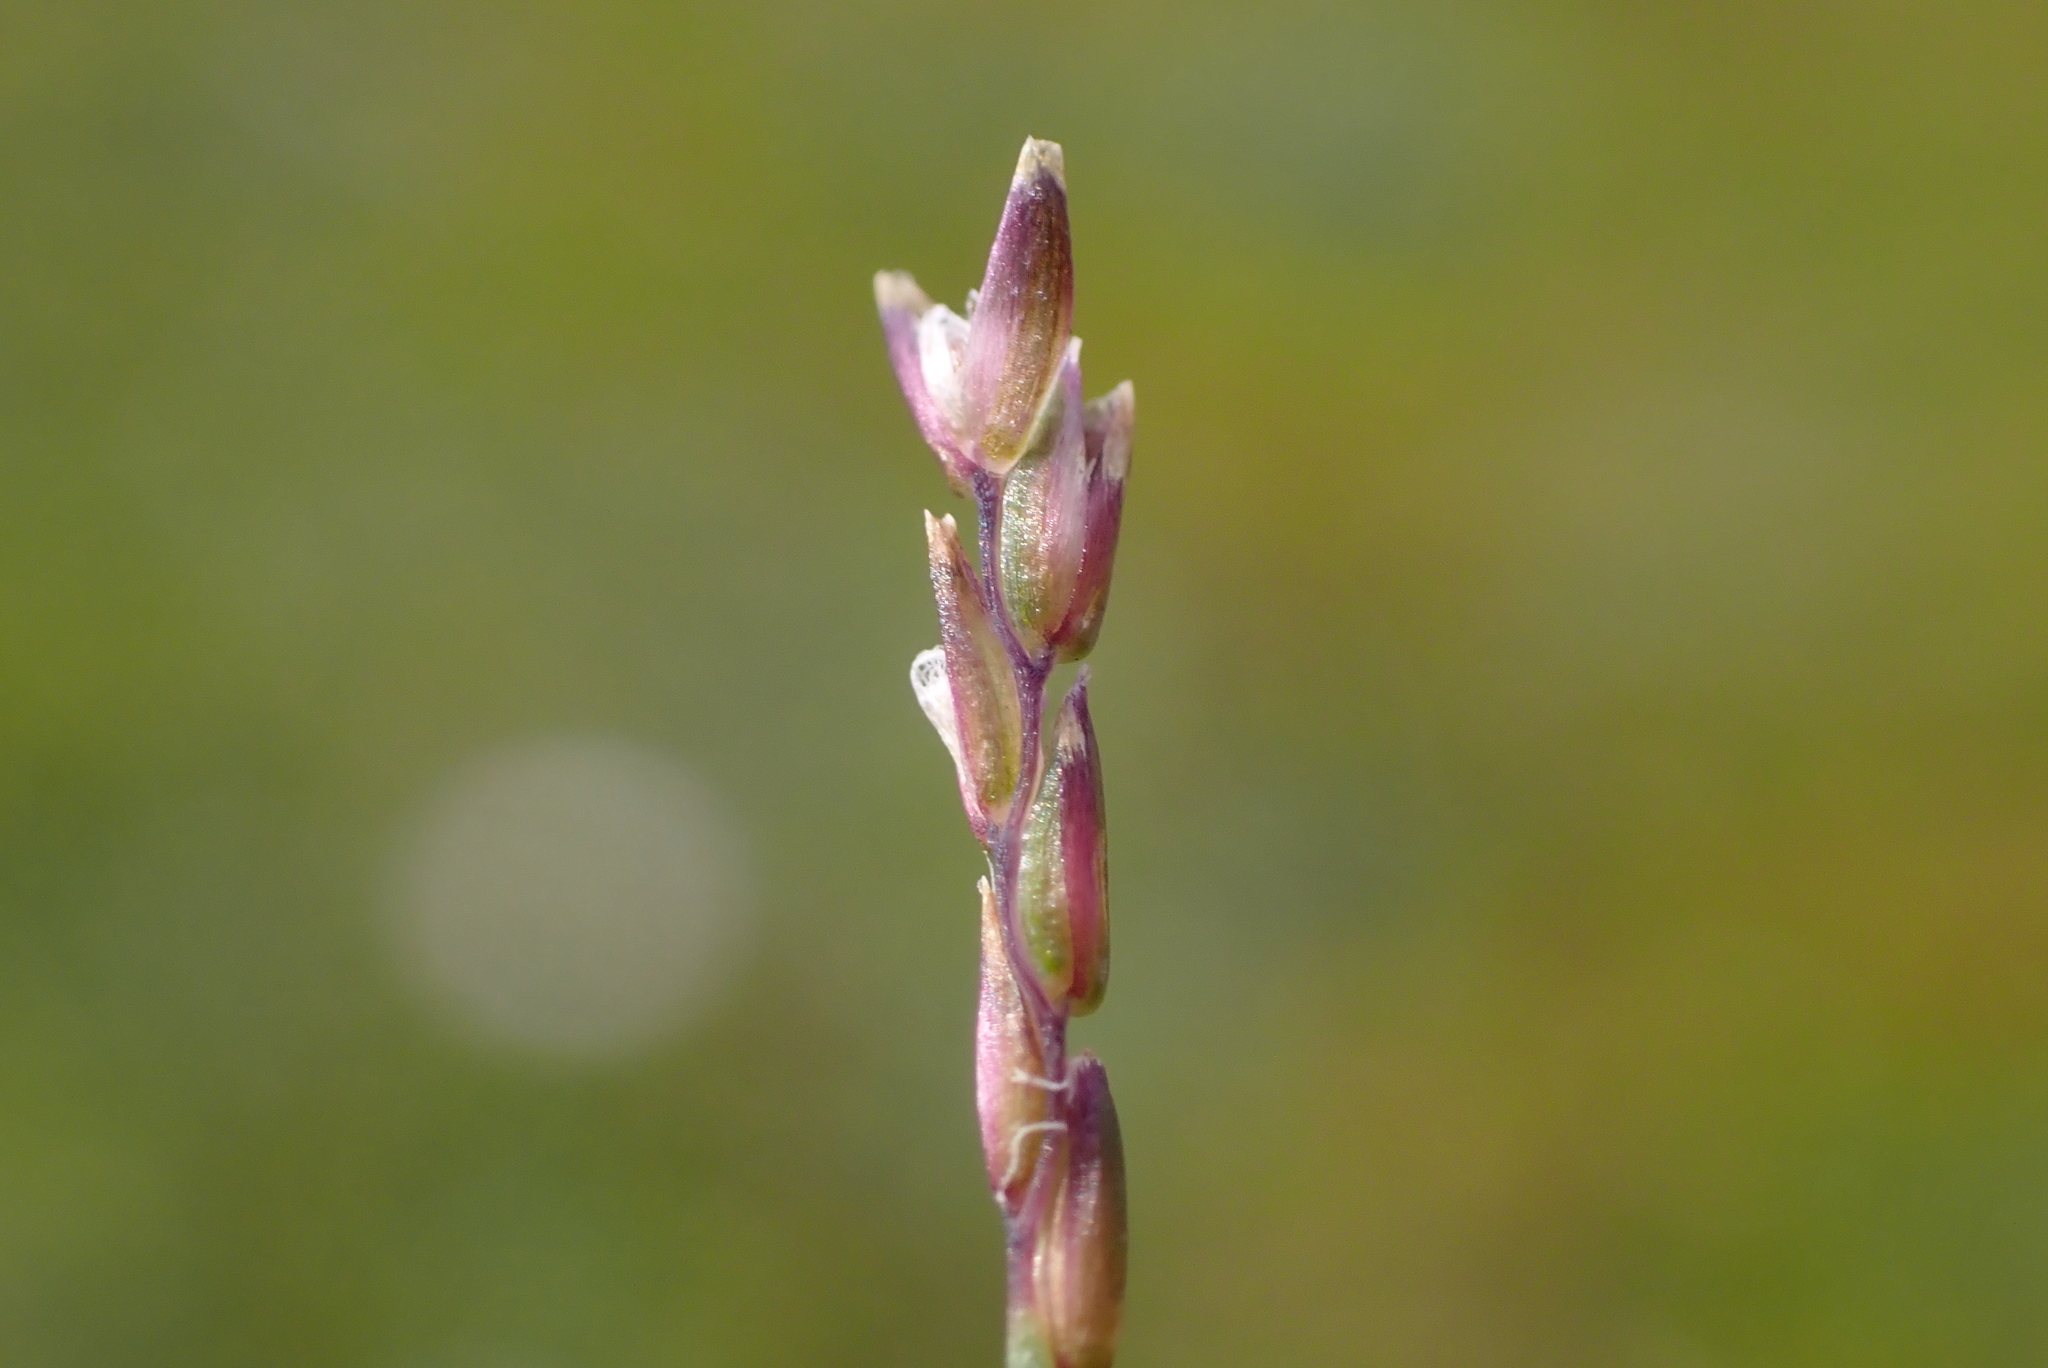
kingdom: Plantae
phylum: Tracheophyta
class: Liliopsida
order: Poales
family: Poaceae
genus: Mibora
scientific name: Mibora minima
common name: Early sand-grass
